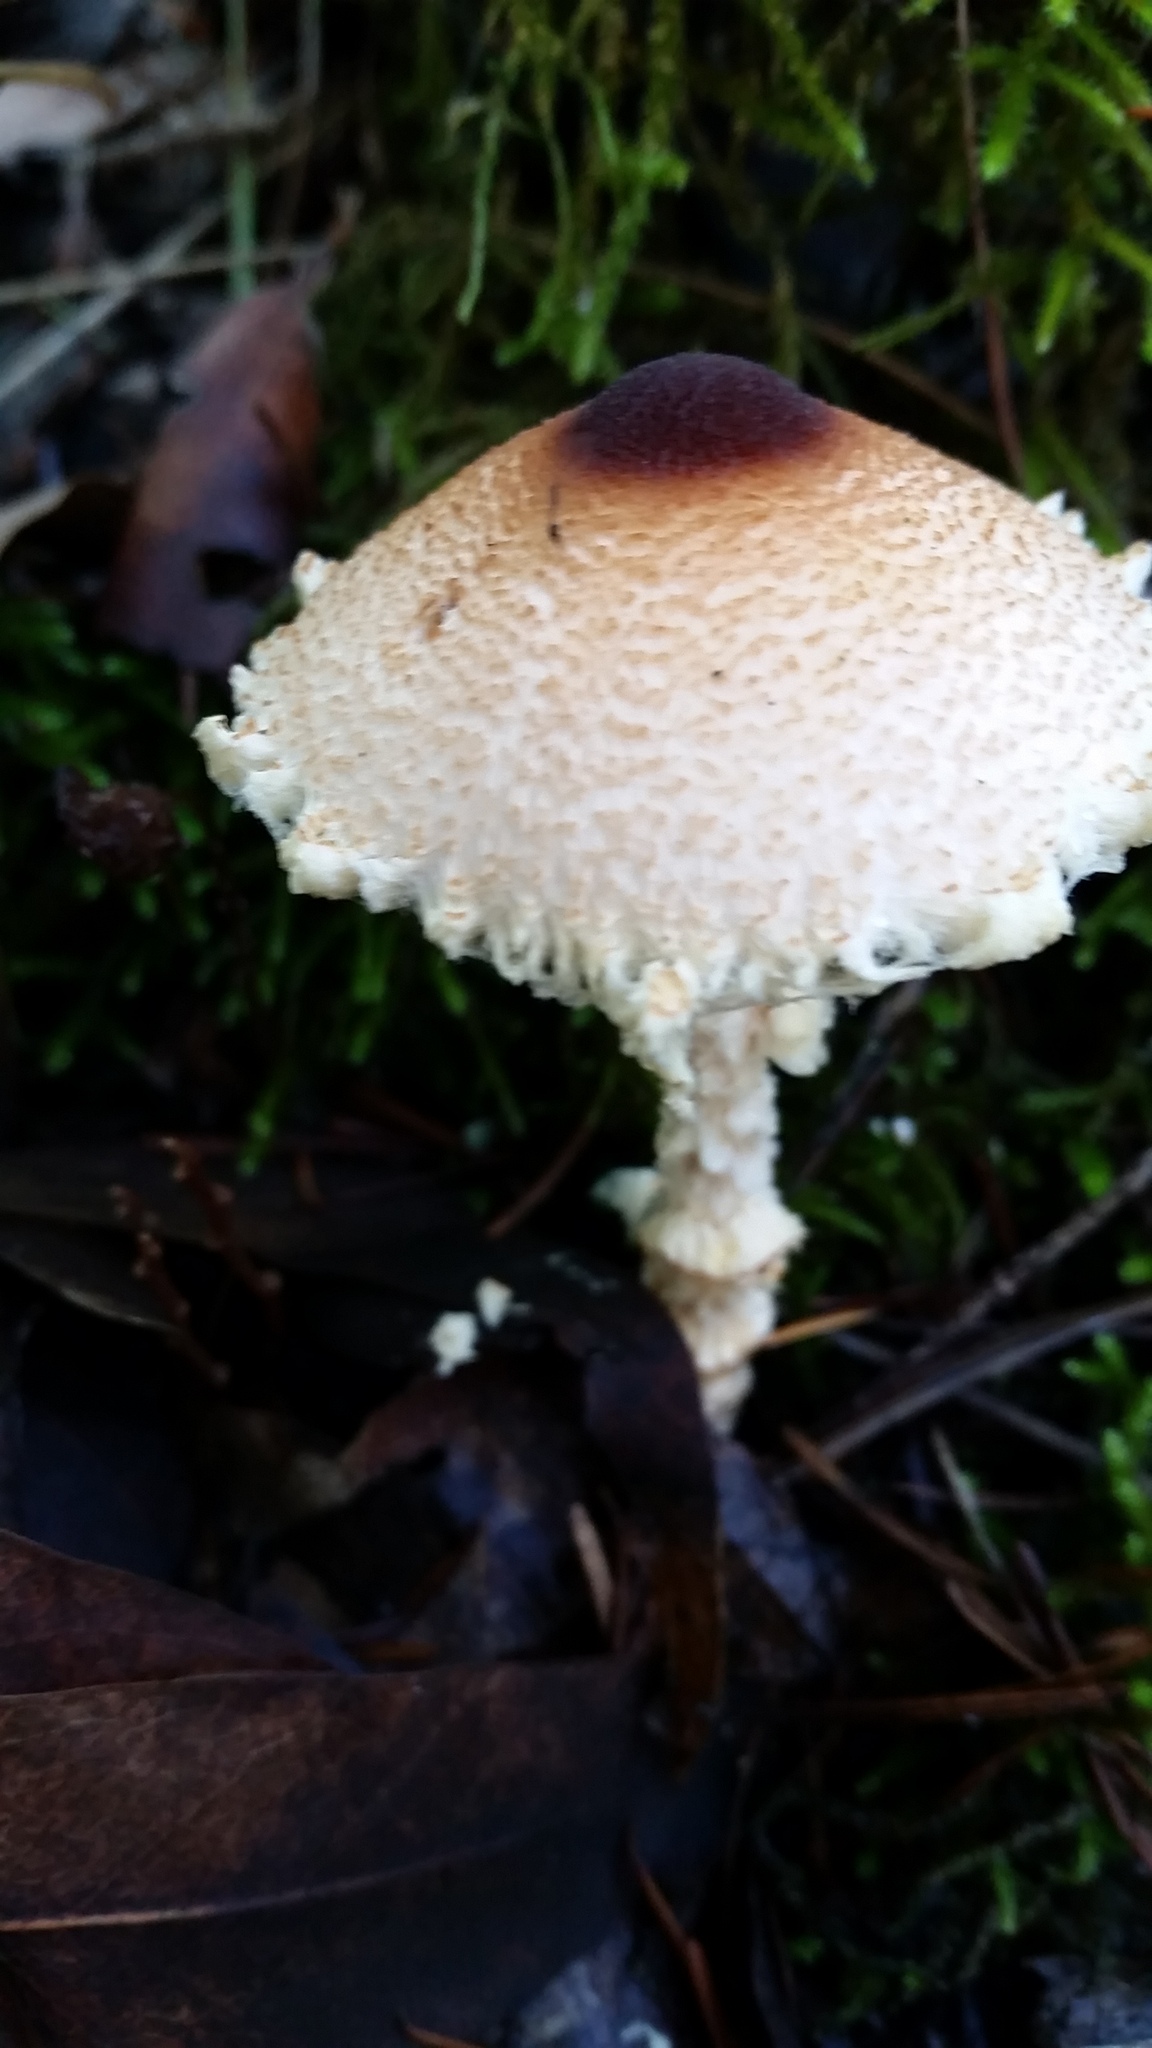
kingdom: Fungi
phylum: Basidiomycota
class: Agaricomycetes
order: Agaricales
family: Agaricaceae
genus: Lepiota
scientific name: Lepiota magnispora
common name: Yellowfoot dapperling
